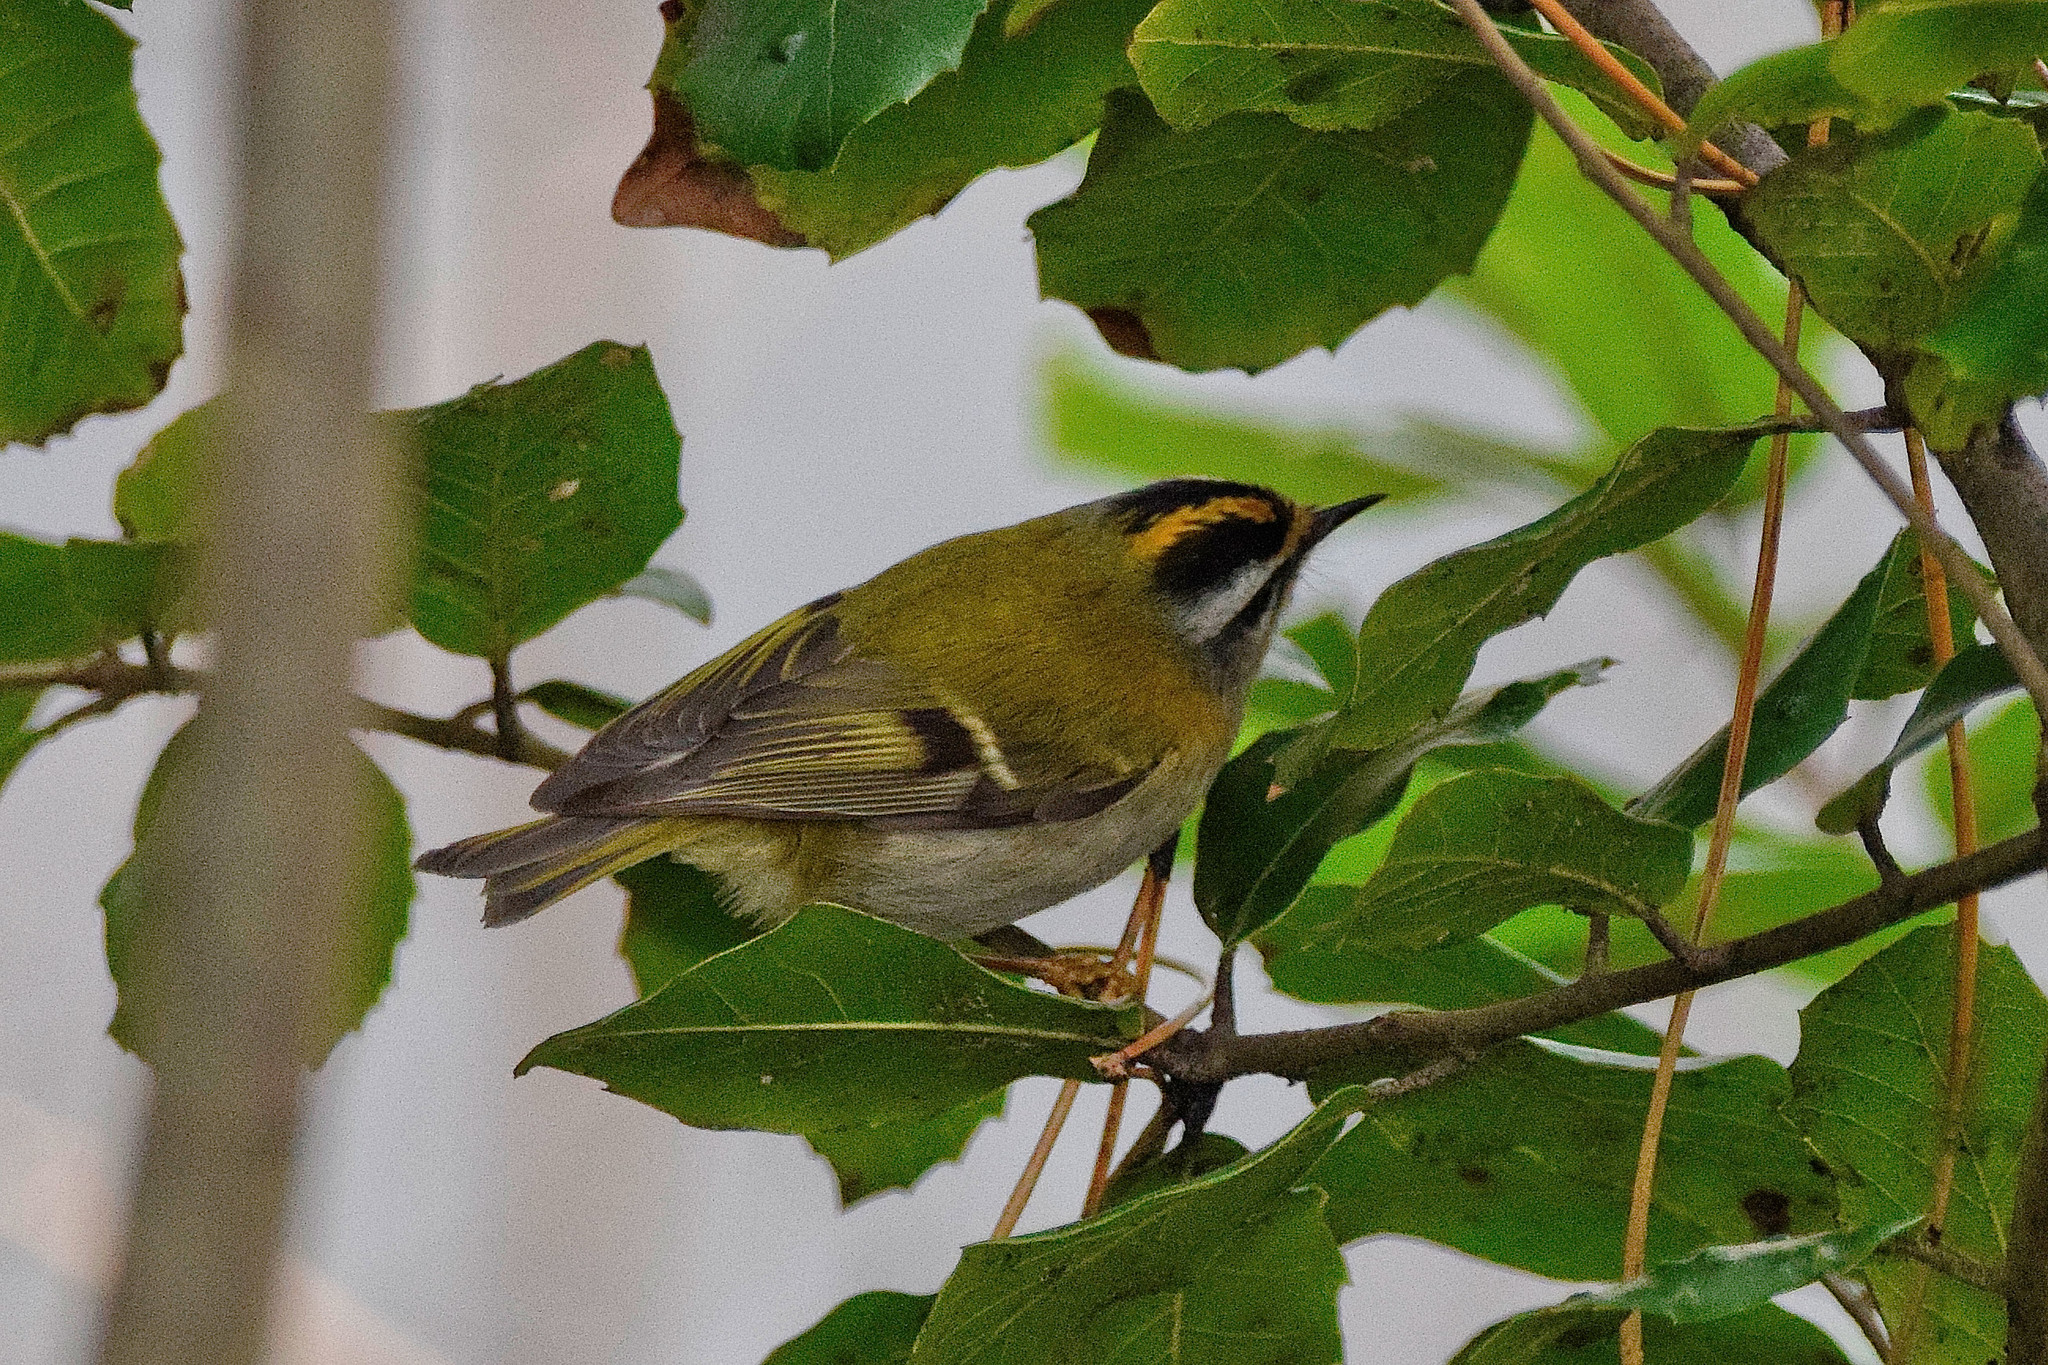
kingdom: Animalia
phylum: Chordata
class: Aves
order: Passeriformes
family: Regulidae
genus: Regulus
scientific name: Regulus ignicapilla
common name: Firecrest
